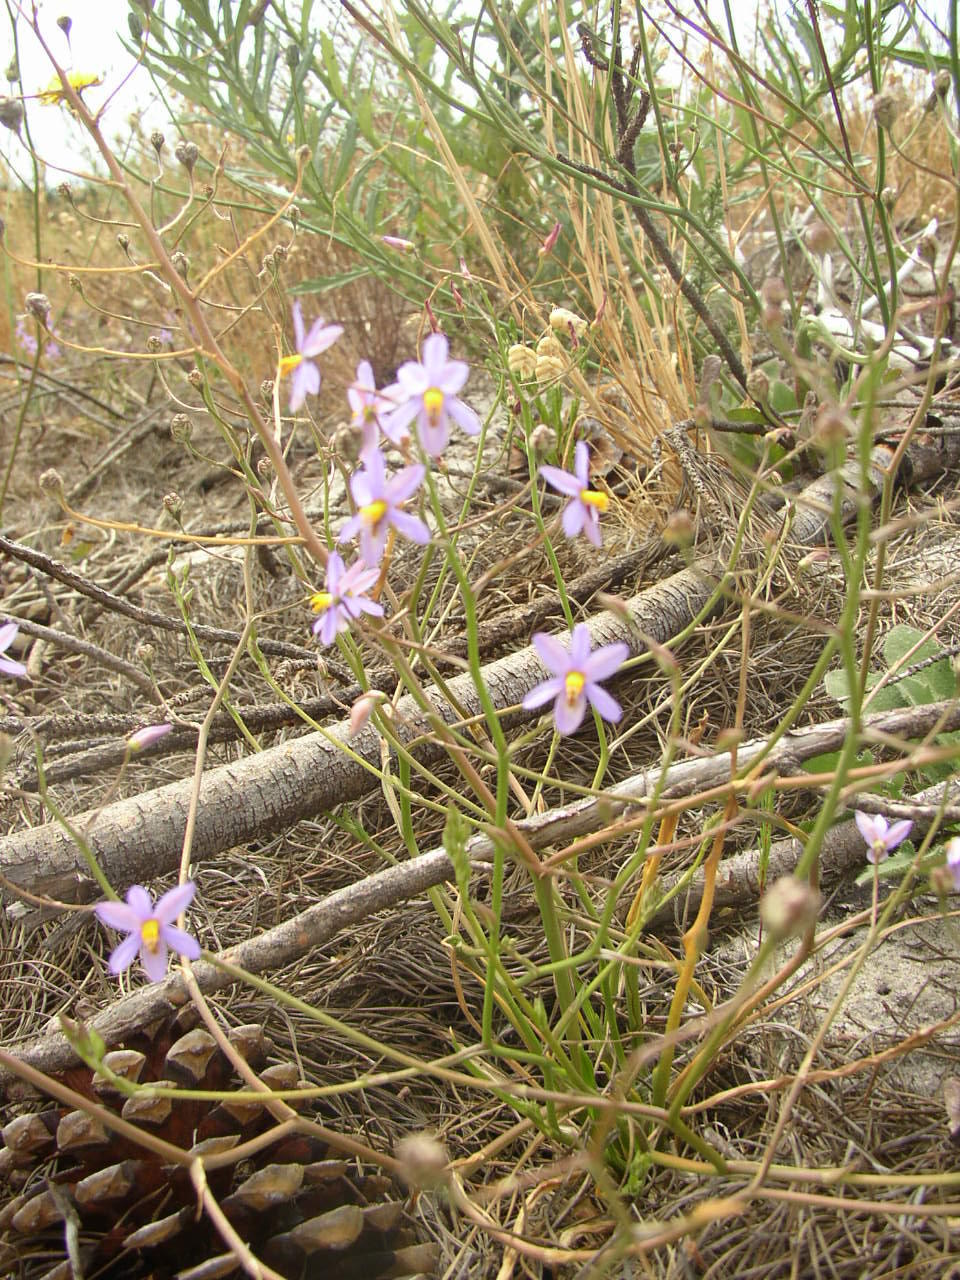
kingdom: Plantae
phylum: Tracheophyta
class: Liliopsida
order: Asparagales
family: Tecophilaeaceae
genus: Cyanella
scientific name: Cyanella hyacinthoides
